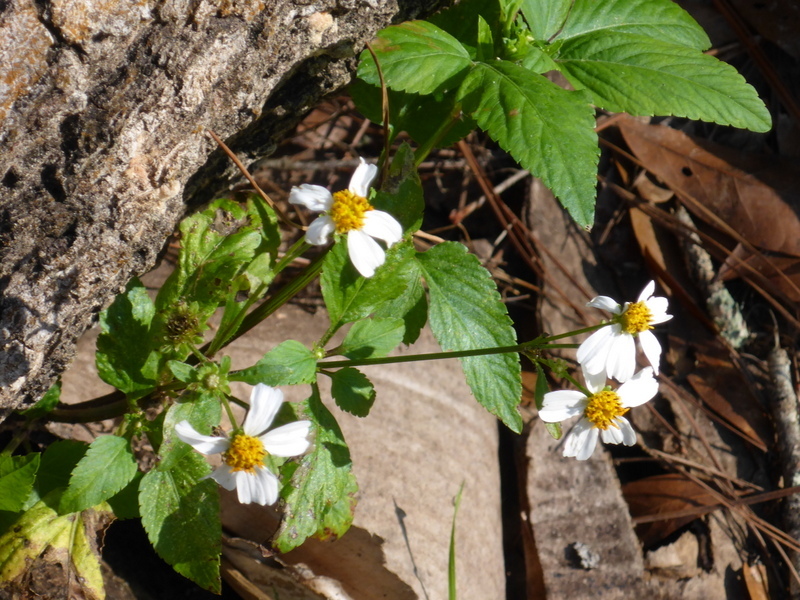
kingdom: Plantae
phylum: Tracheophyta
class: Magnoliopsida
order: Asterales
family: Asteraceae
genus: Bidens
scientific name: Bidens alba
